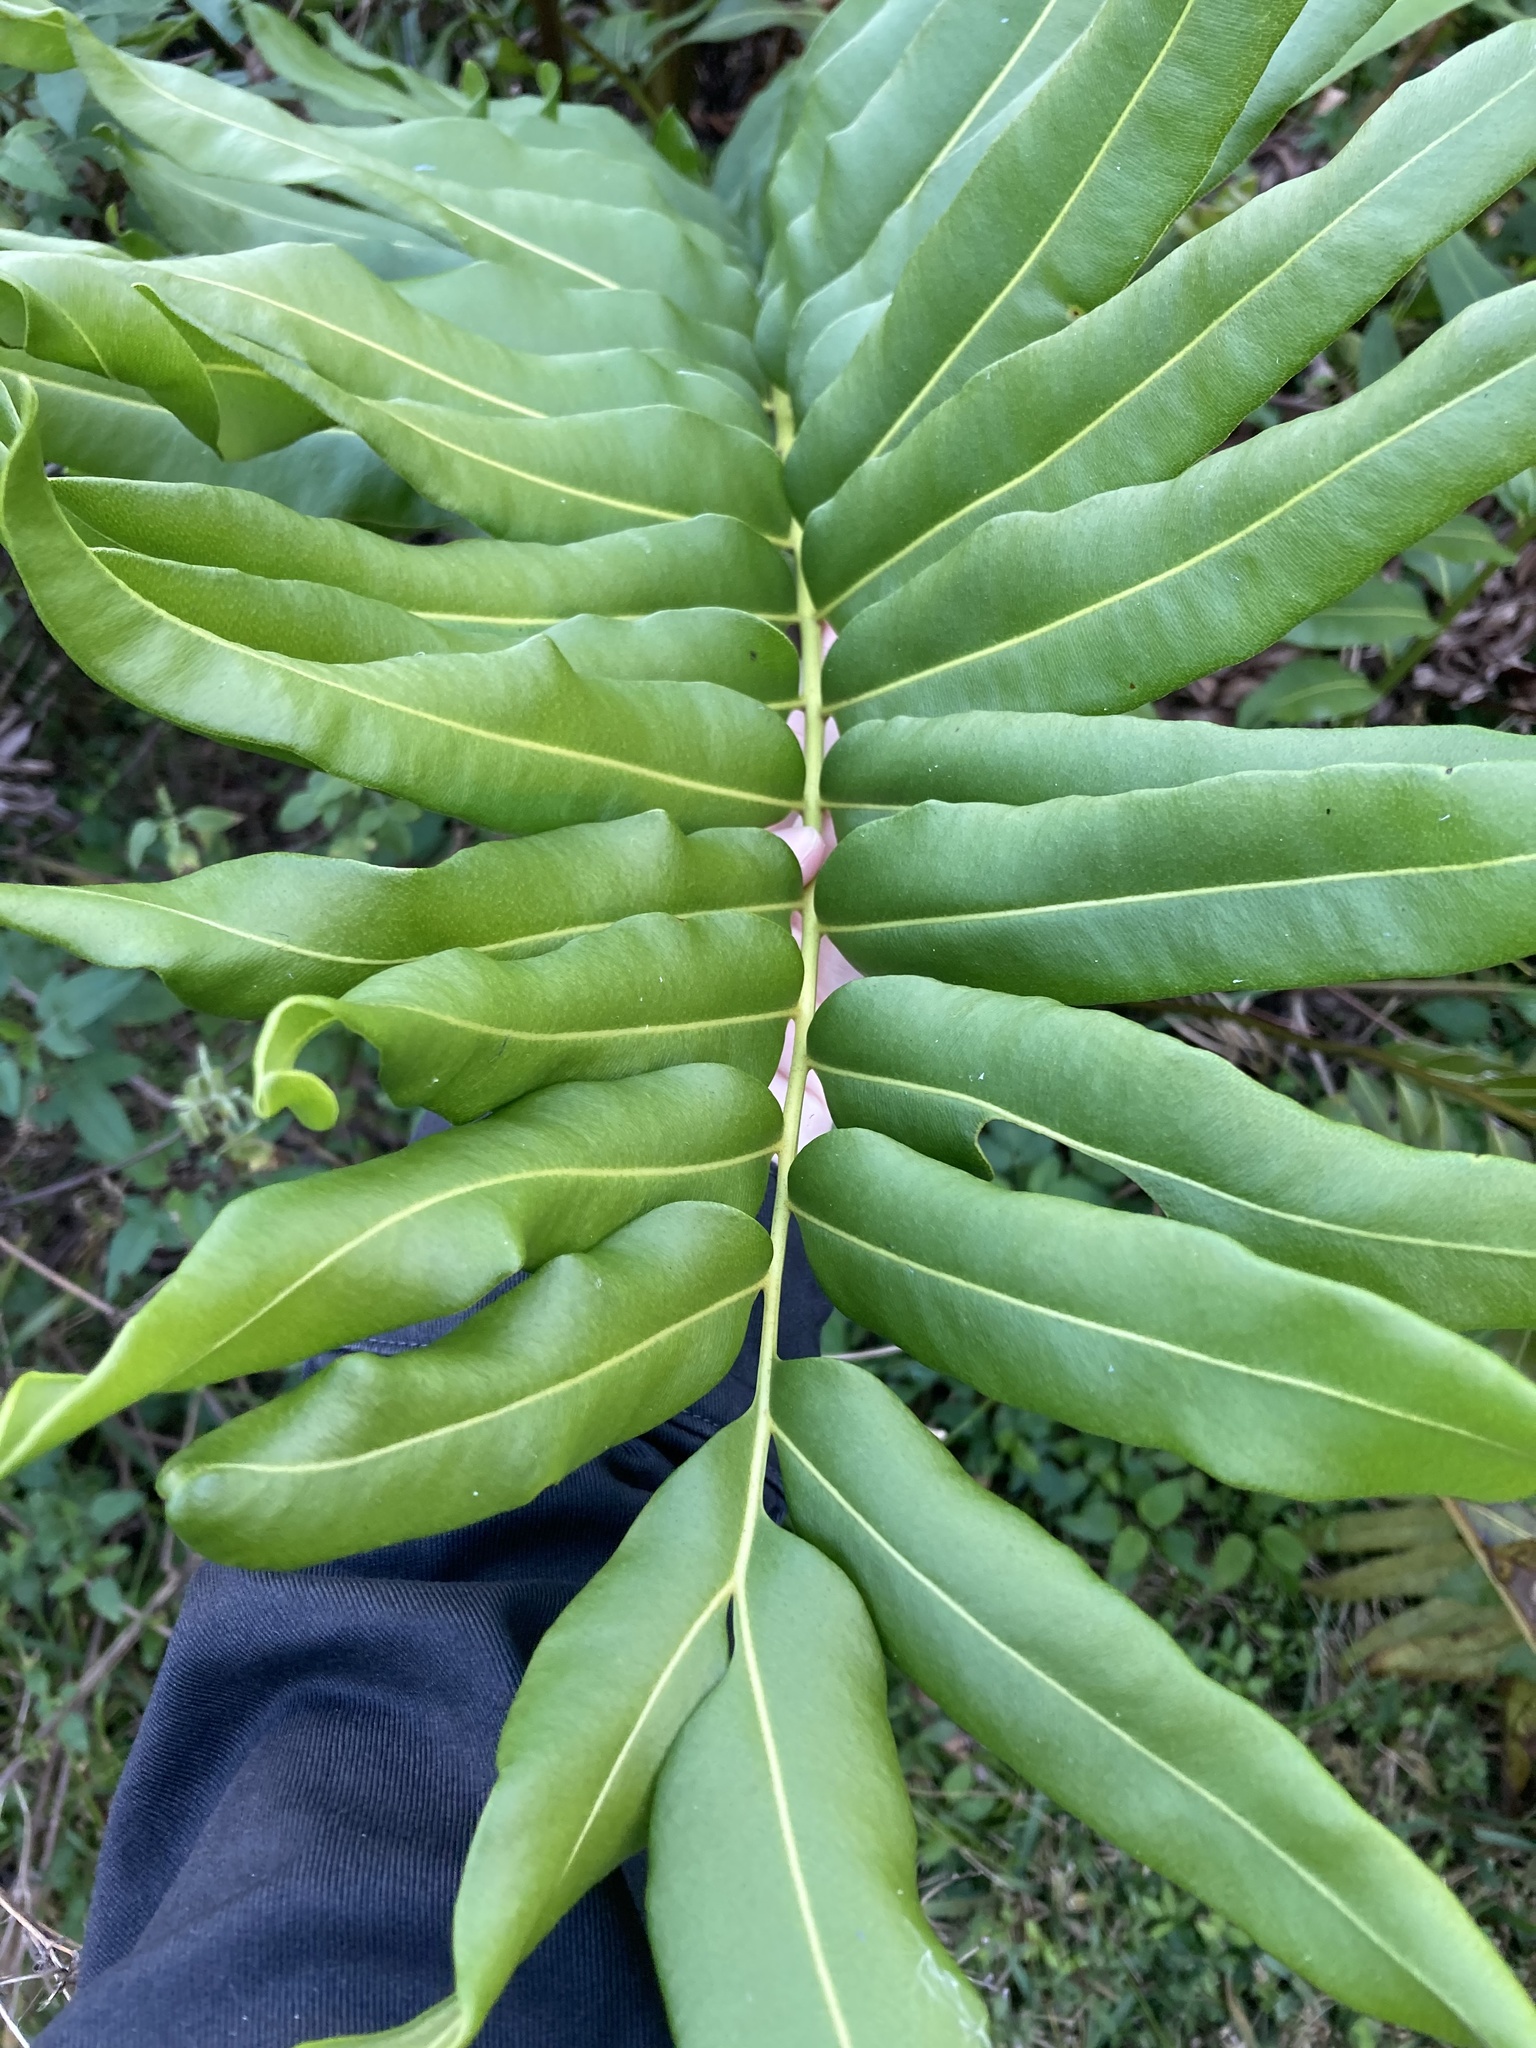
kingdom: Plantae
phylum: Tracheophyta
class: Polypodiopsida
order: Polypodiales
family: Pteridaceae
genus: Acrostichum
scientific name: Acrostichum danaeifolium
